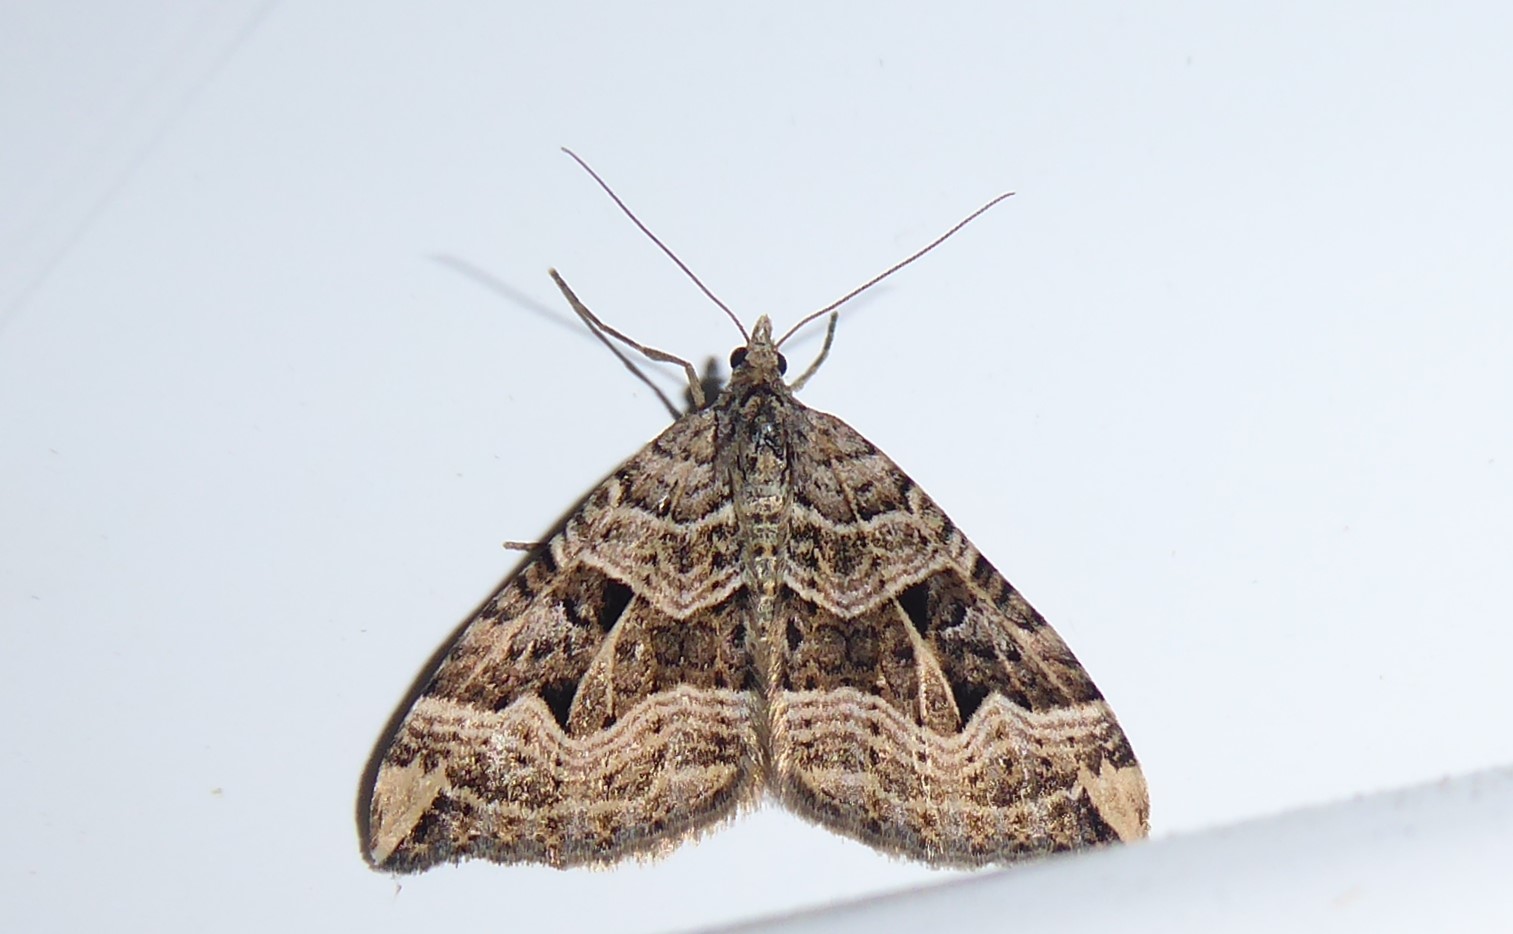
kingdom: Animalia
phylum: Arthropoda
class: Insecta
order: Lepidoptera
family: Geometridae
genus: Xanthorhoe
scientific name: Xanthorhoe semifissata
